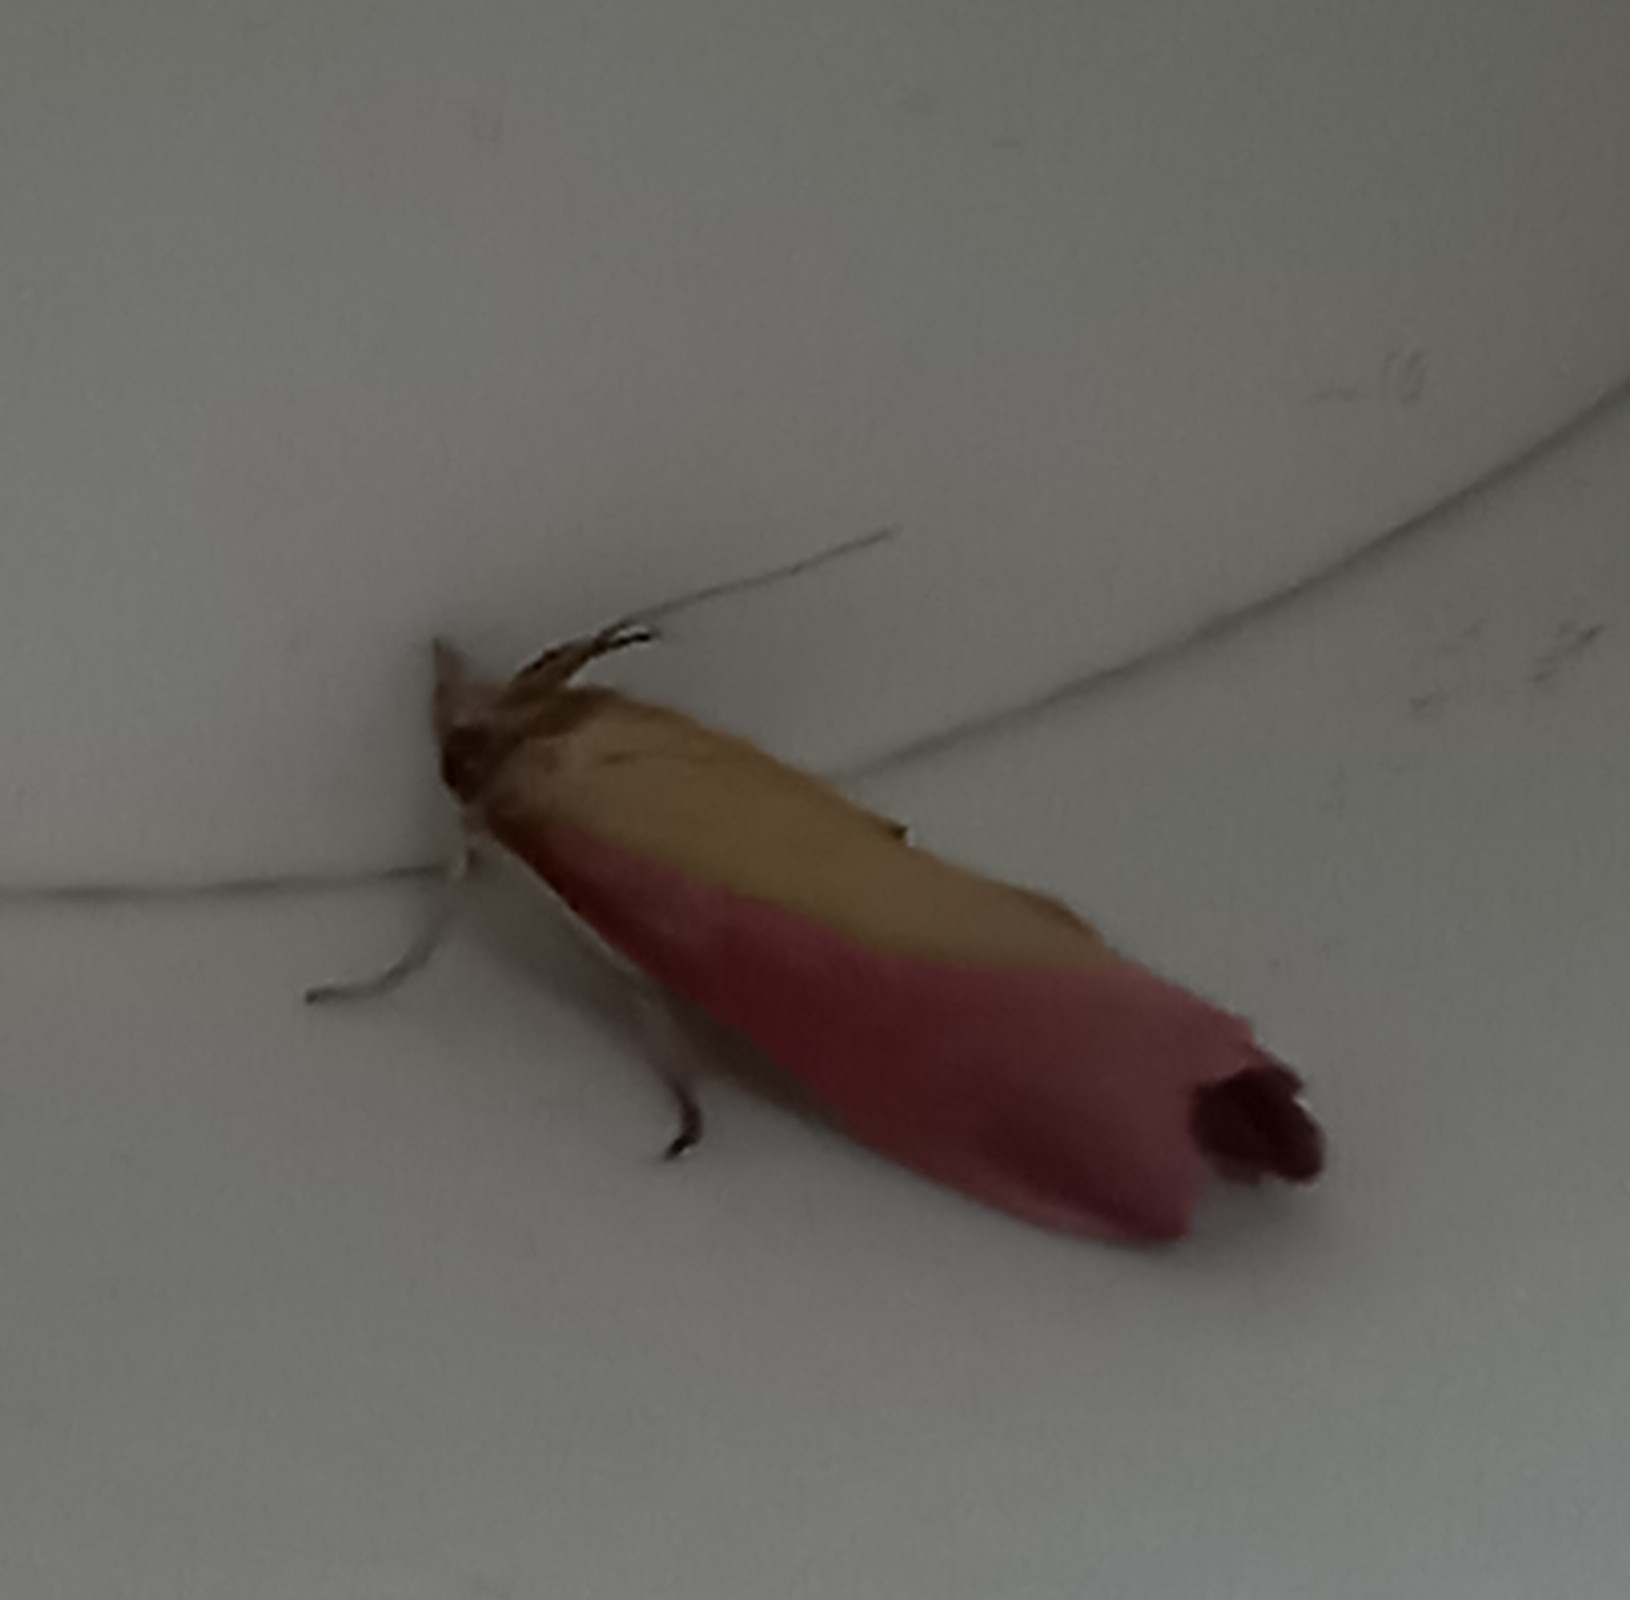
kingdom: Animalia
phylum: Arthropoda
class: Insecta
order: Lepidoptera
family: Pyralidae
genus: Oncocera
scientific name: Oncocera semirubella
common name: Rosy-striped knot-horn
